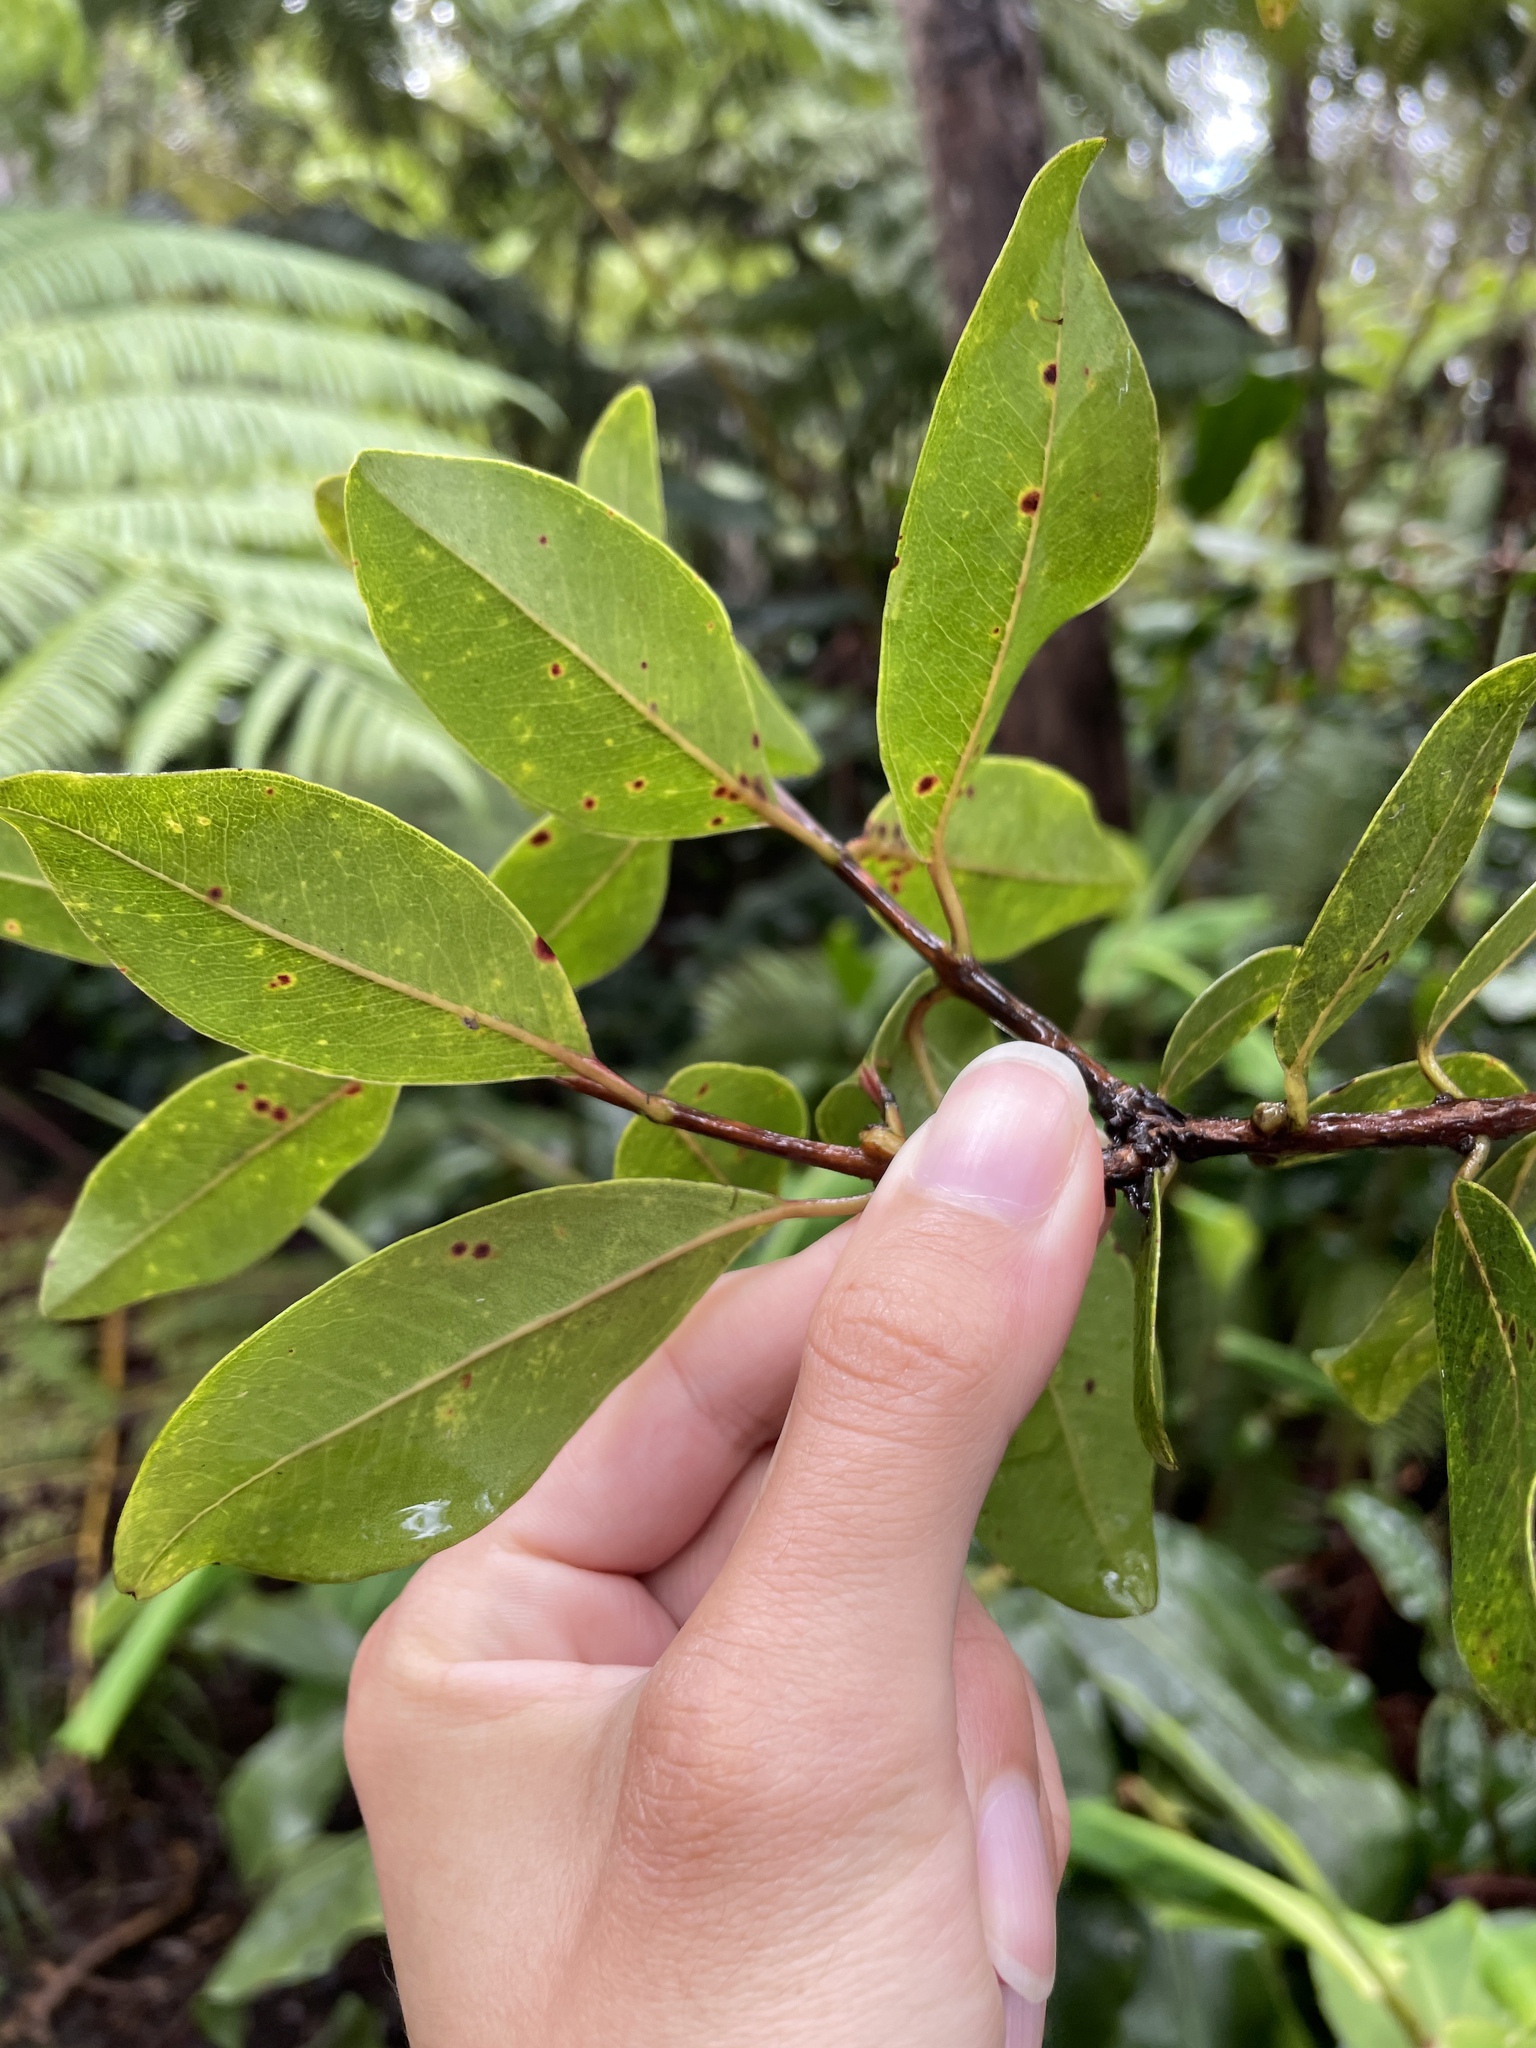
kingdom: Plantae
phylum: Tracheophyta
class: Magnoliopsida
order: Myrtales
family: Myrtaceae
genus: Metrosideros
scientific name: Metrosideros polymorpha
